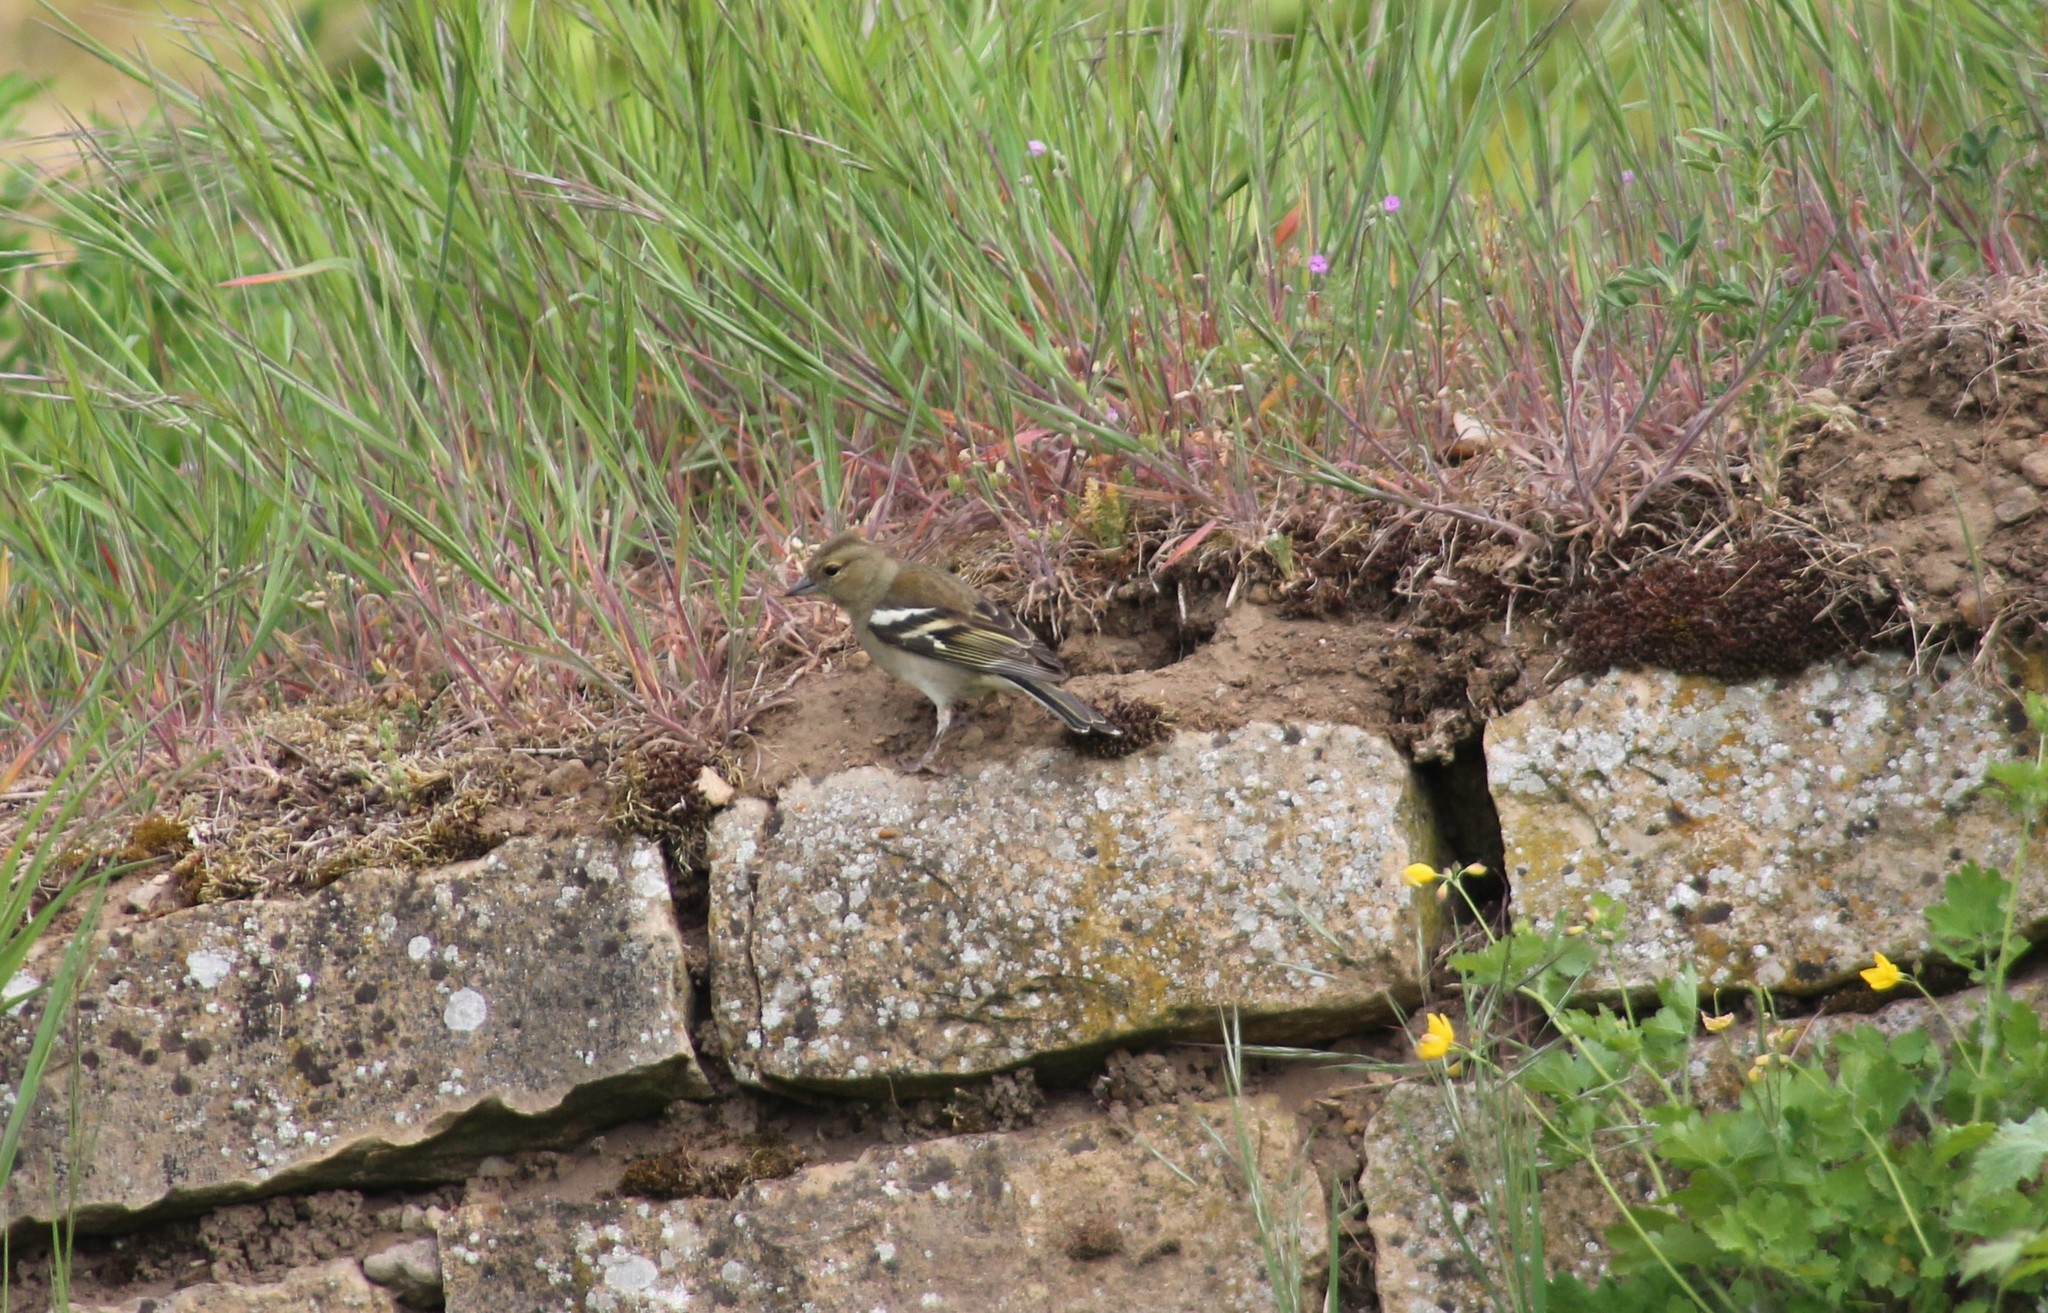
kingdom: Animalia
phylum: Chordata
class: Aves
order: Passeriformes
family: Fringillidae
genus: Fringilla
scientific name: Fringilla coelebs
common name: Common chaffinch
